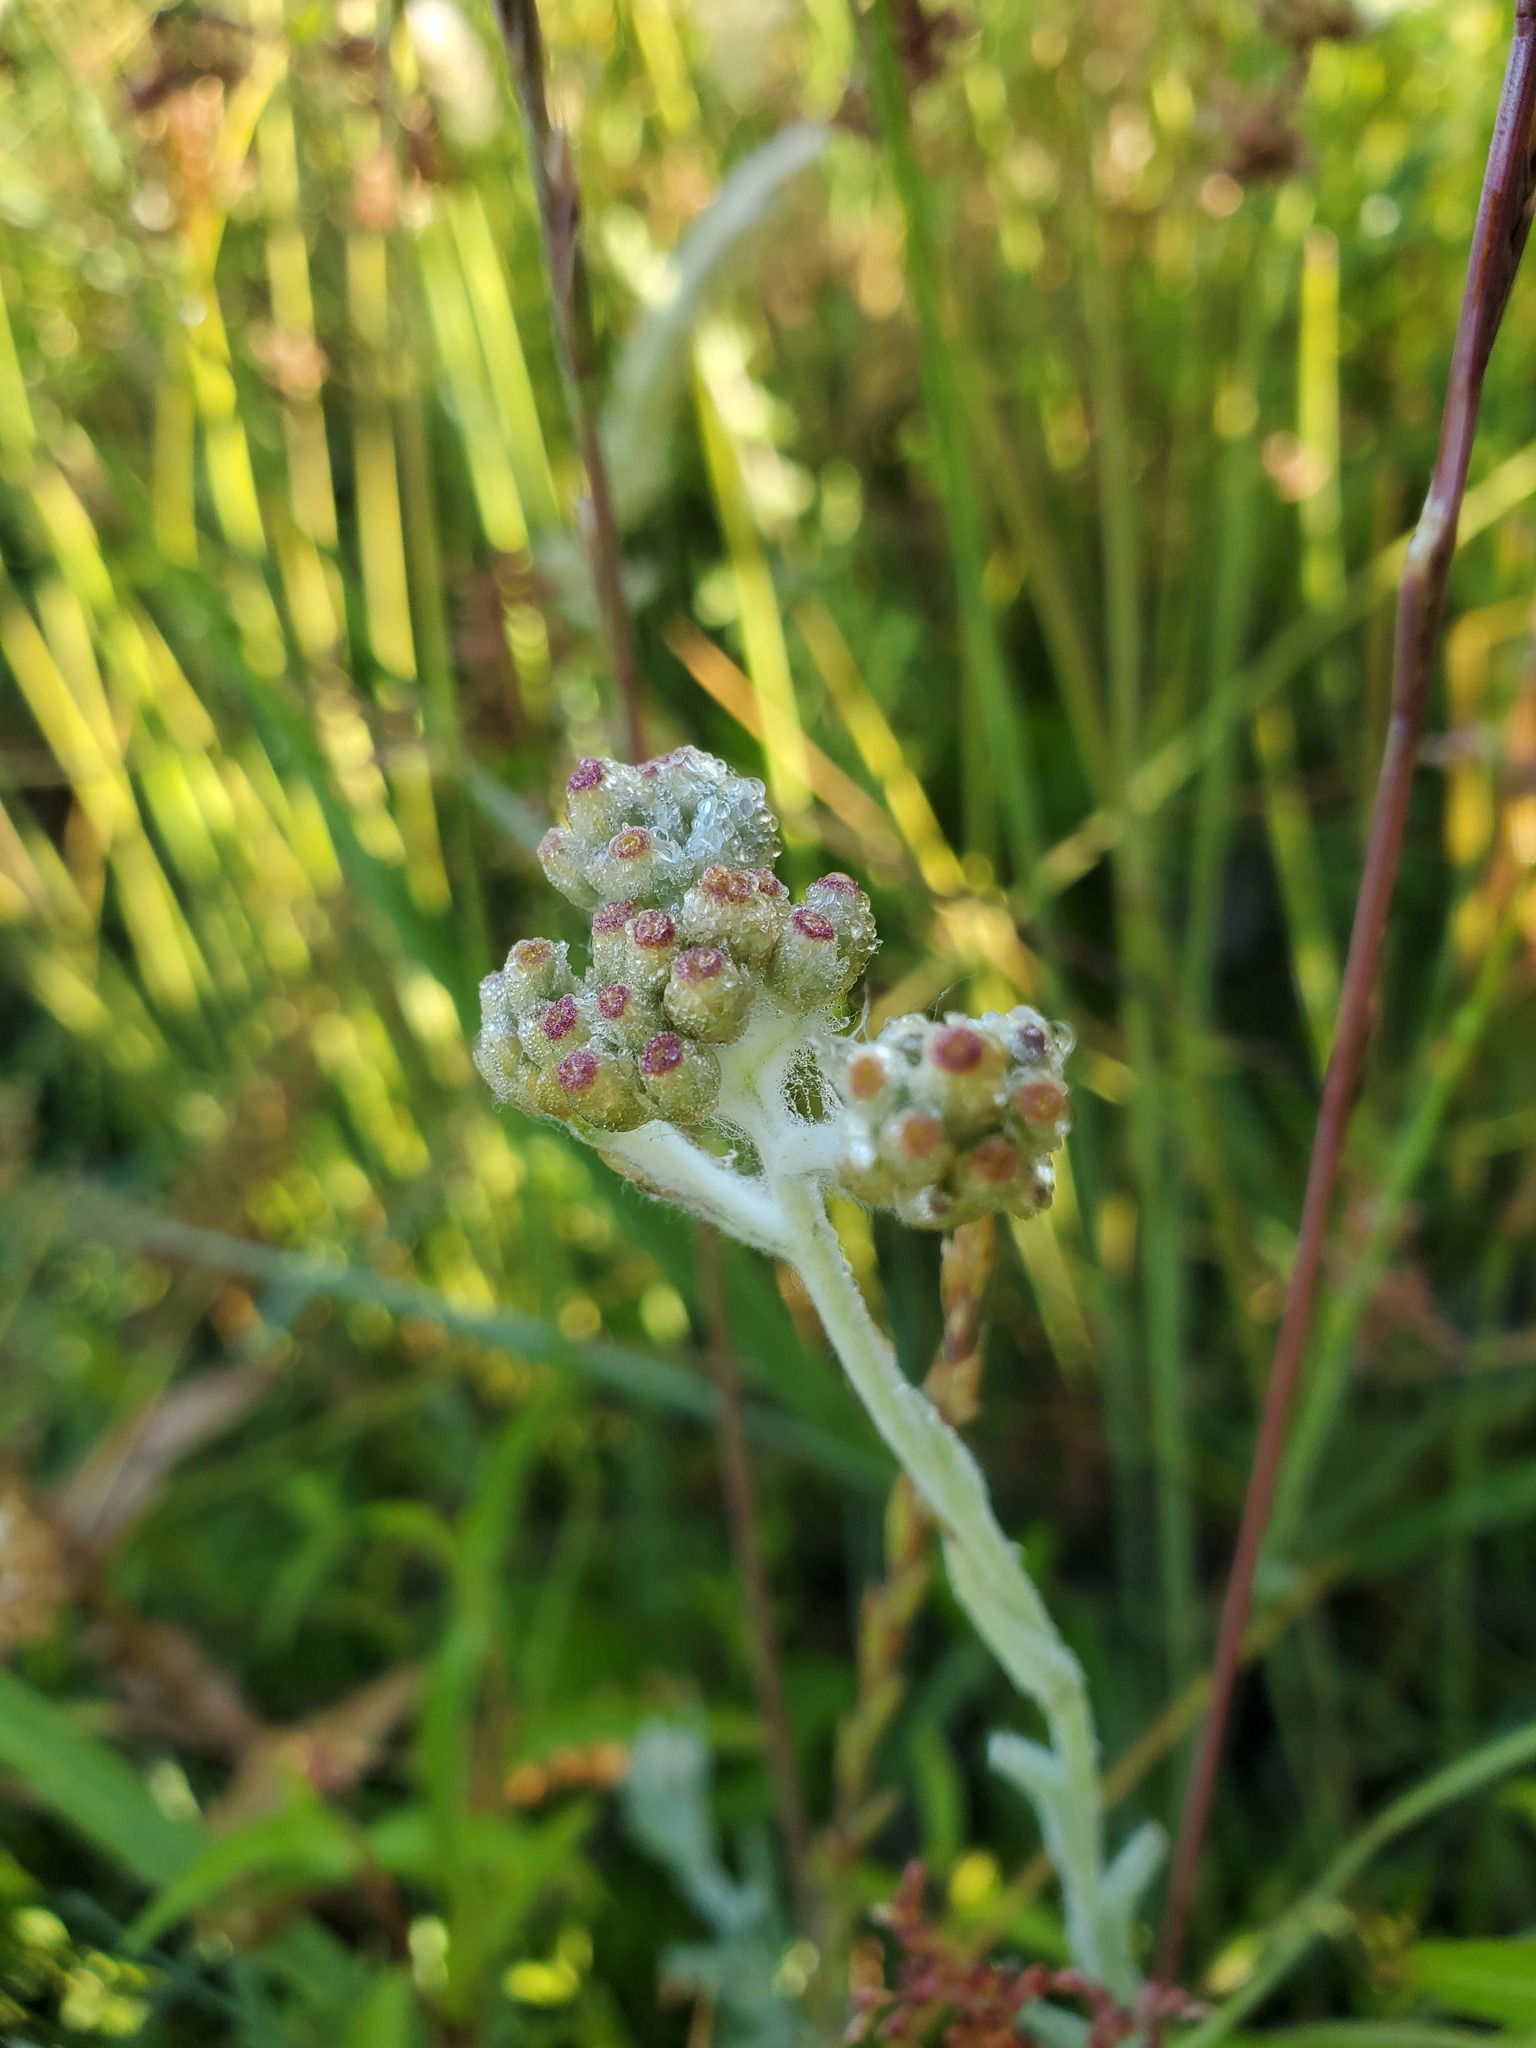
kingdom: Plantae
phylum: Tracheophyta
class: Magnoliopsida
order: Asterales
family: Asteraceae
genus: Helichrysum
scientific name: Helichrysum luteoalbum
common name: Daisy
